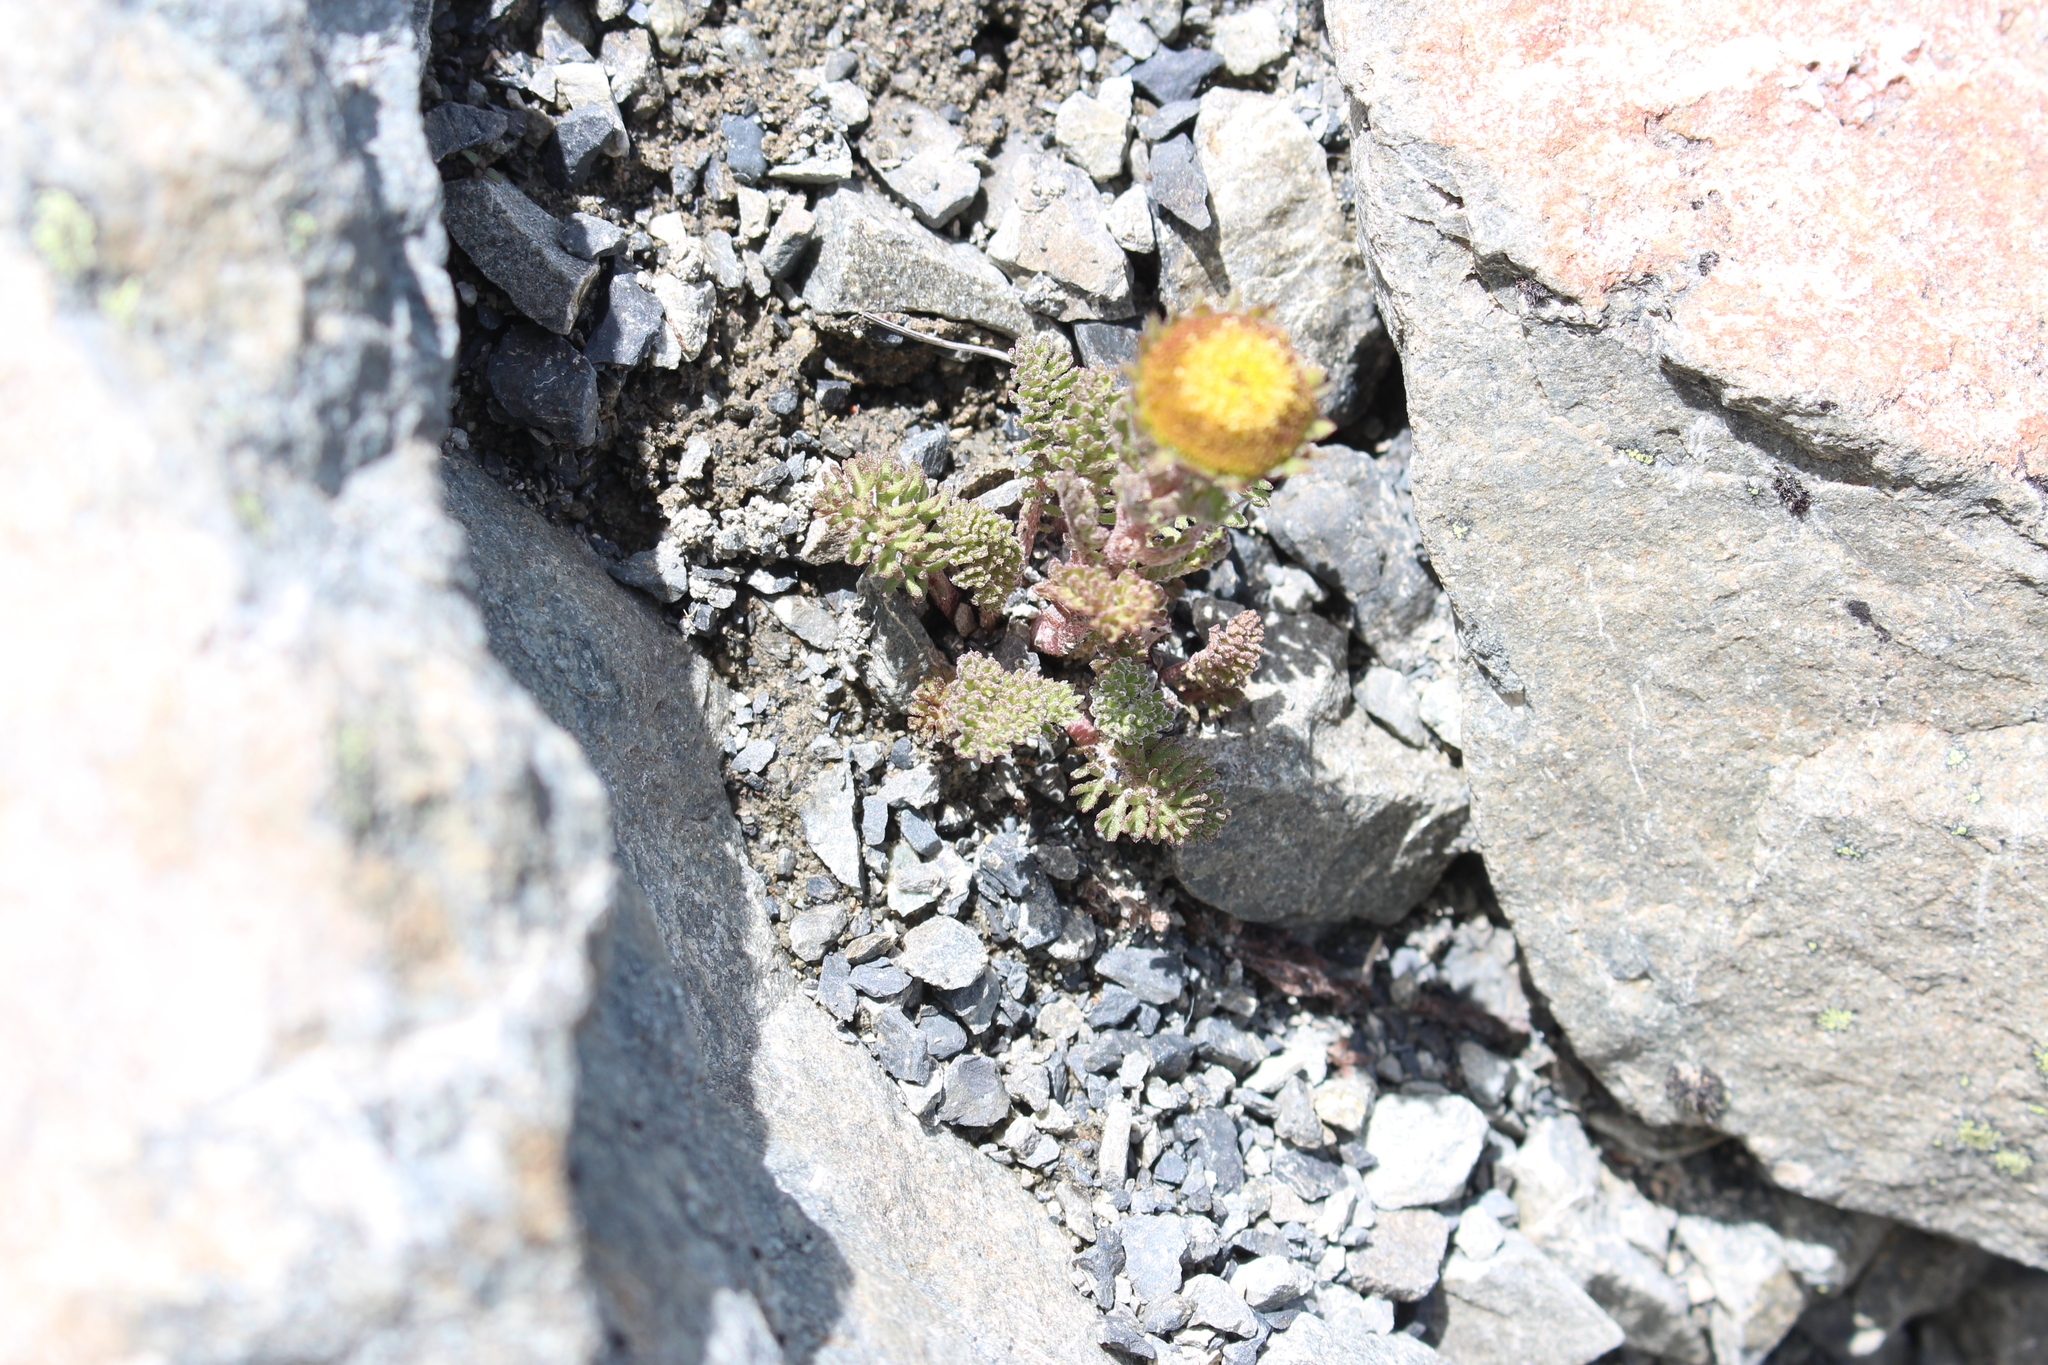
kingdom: Plantae
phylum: Tracheophyta
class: Magnoliopsida
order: Asterales
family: Asteraceae
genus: Leptinella
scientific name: Leptinella dendyi
